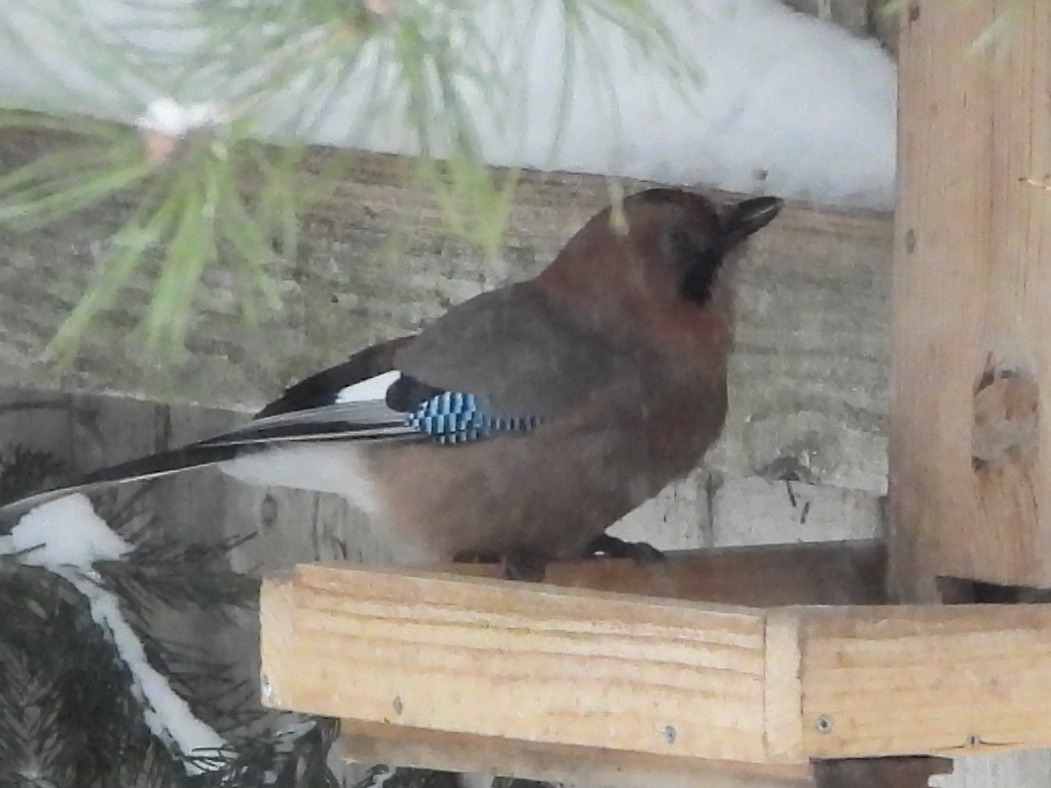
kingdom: Animalia
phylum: Chordata
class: Aves
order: Passeriformes
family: Corvidae
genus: Garrulus
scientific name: Garrulus glandarius
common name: Eurasian jay
